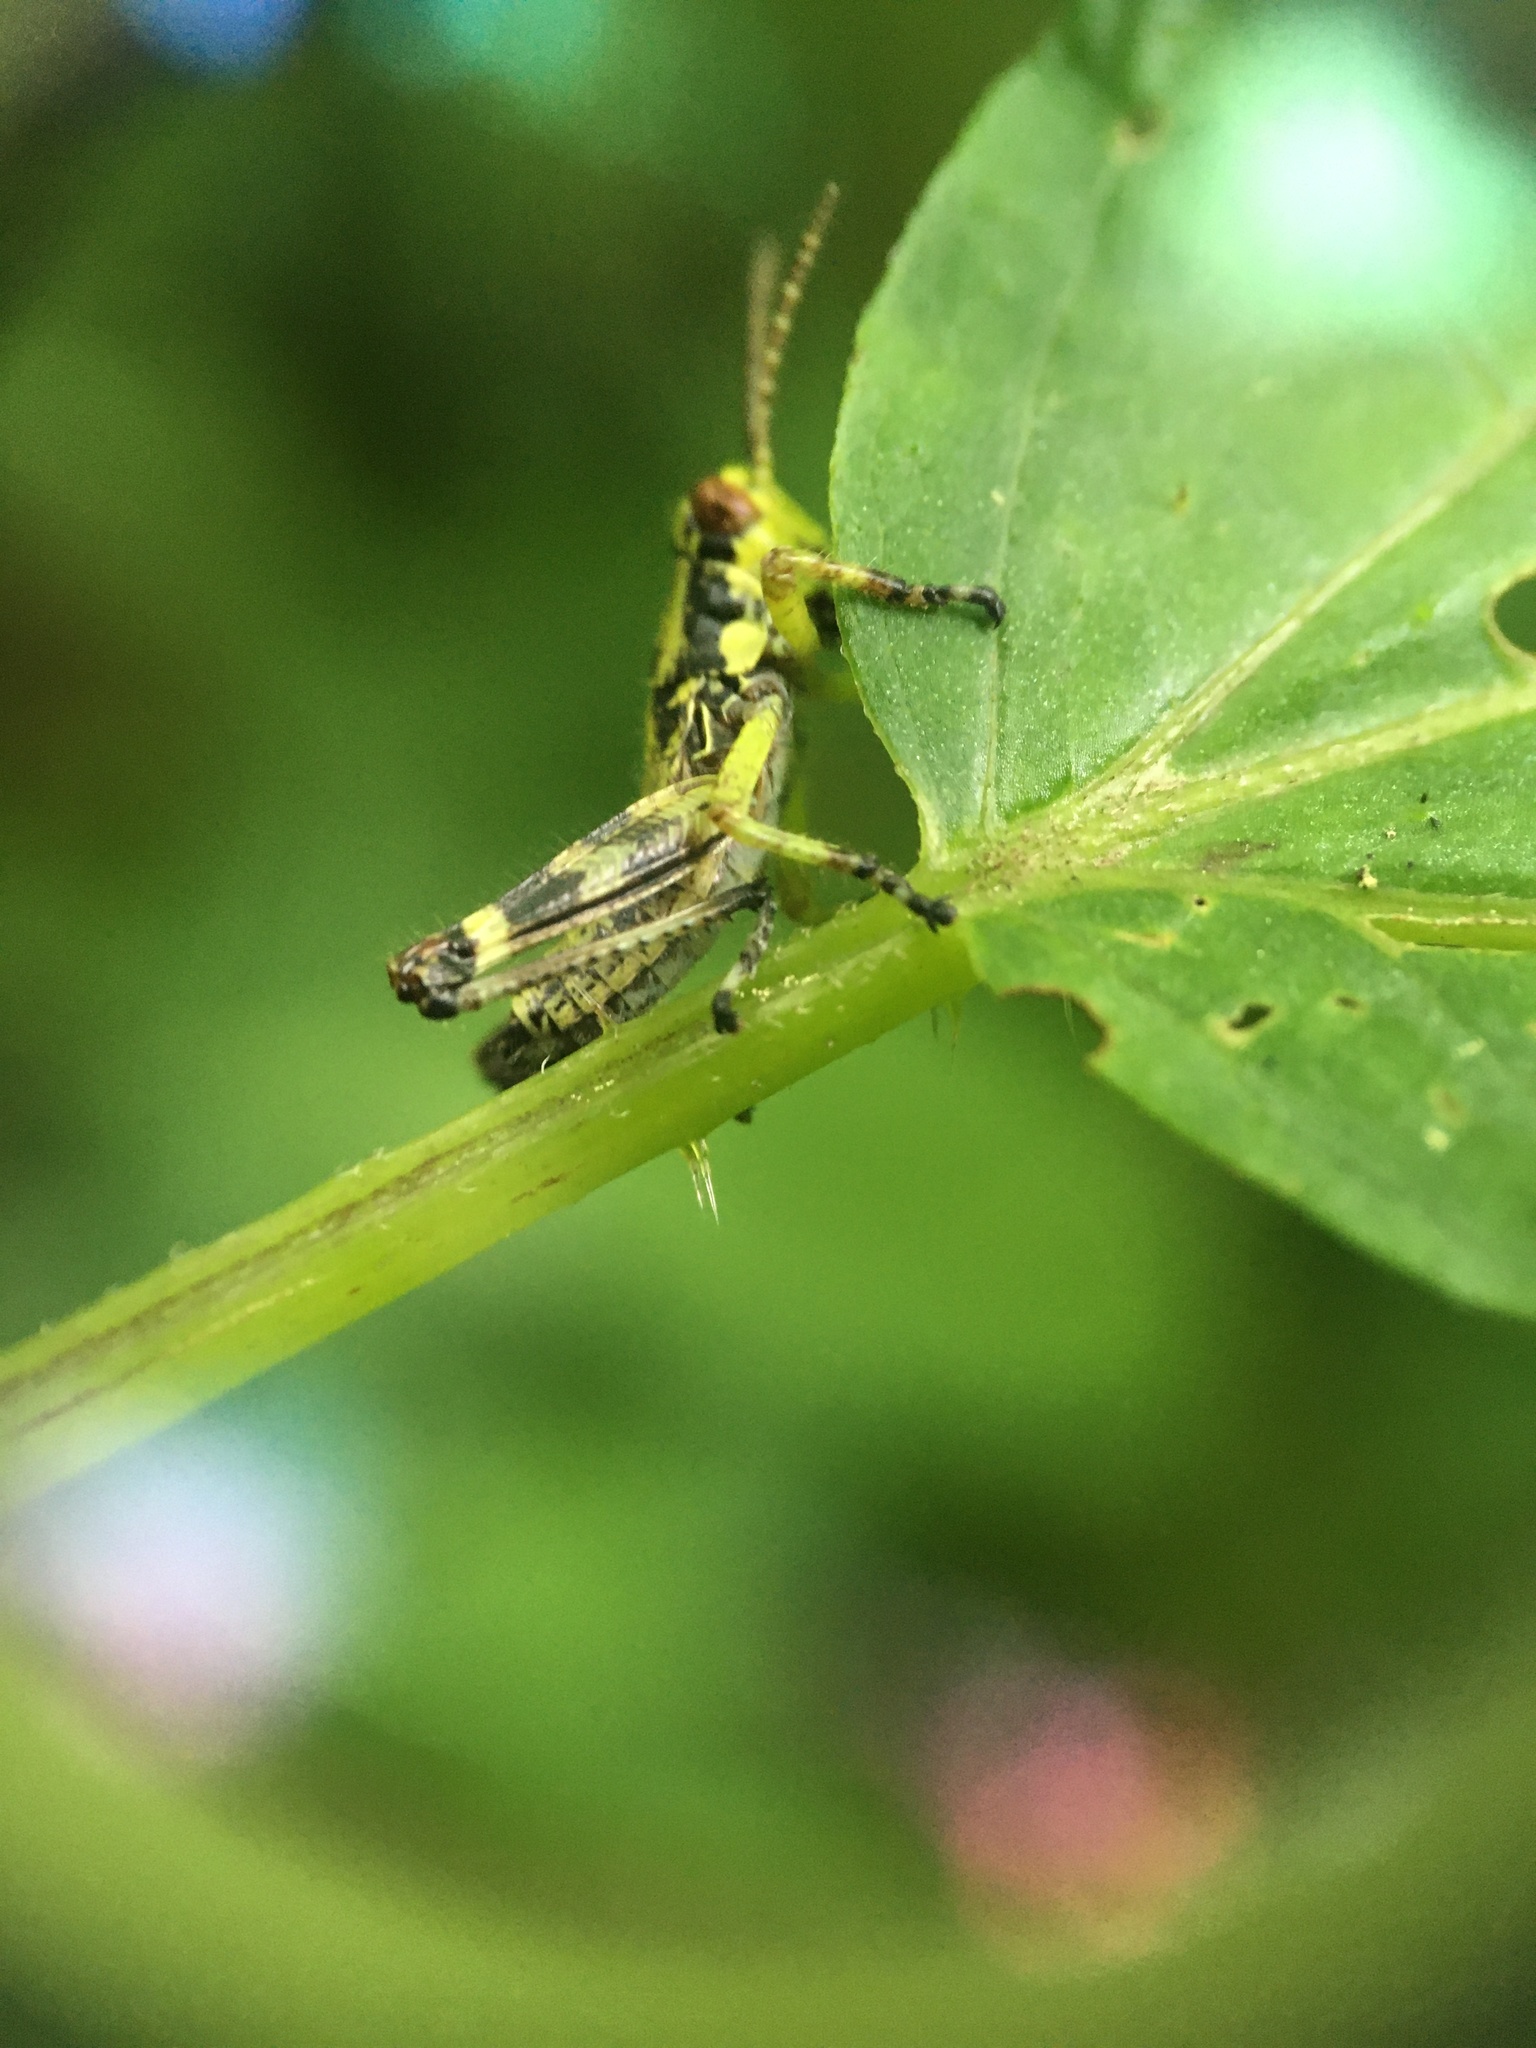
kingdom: Animalia
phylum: Arthropoda
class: Insecta
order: Orthoptera
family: Acrididae
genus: Booneacris
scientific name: Booneacris glacialis
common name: Wingless mountain grasshopper
